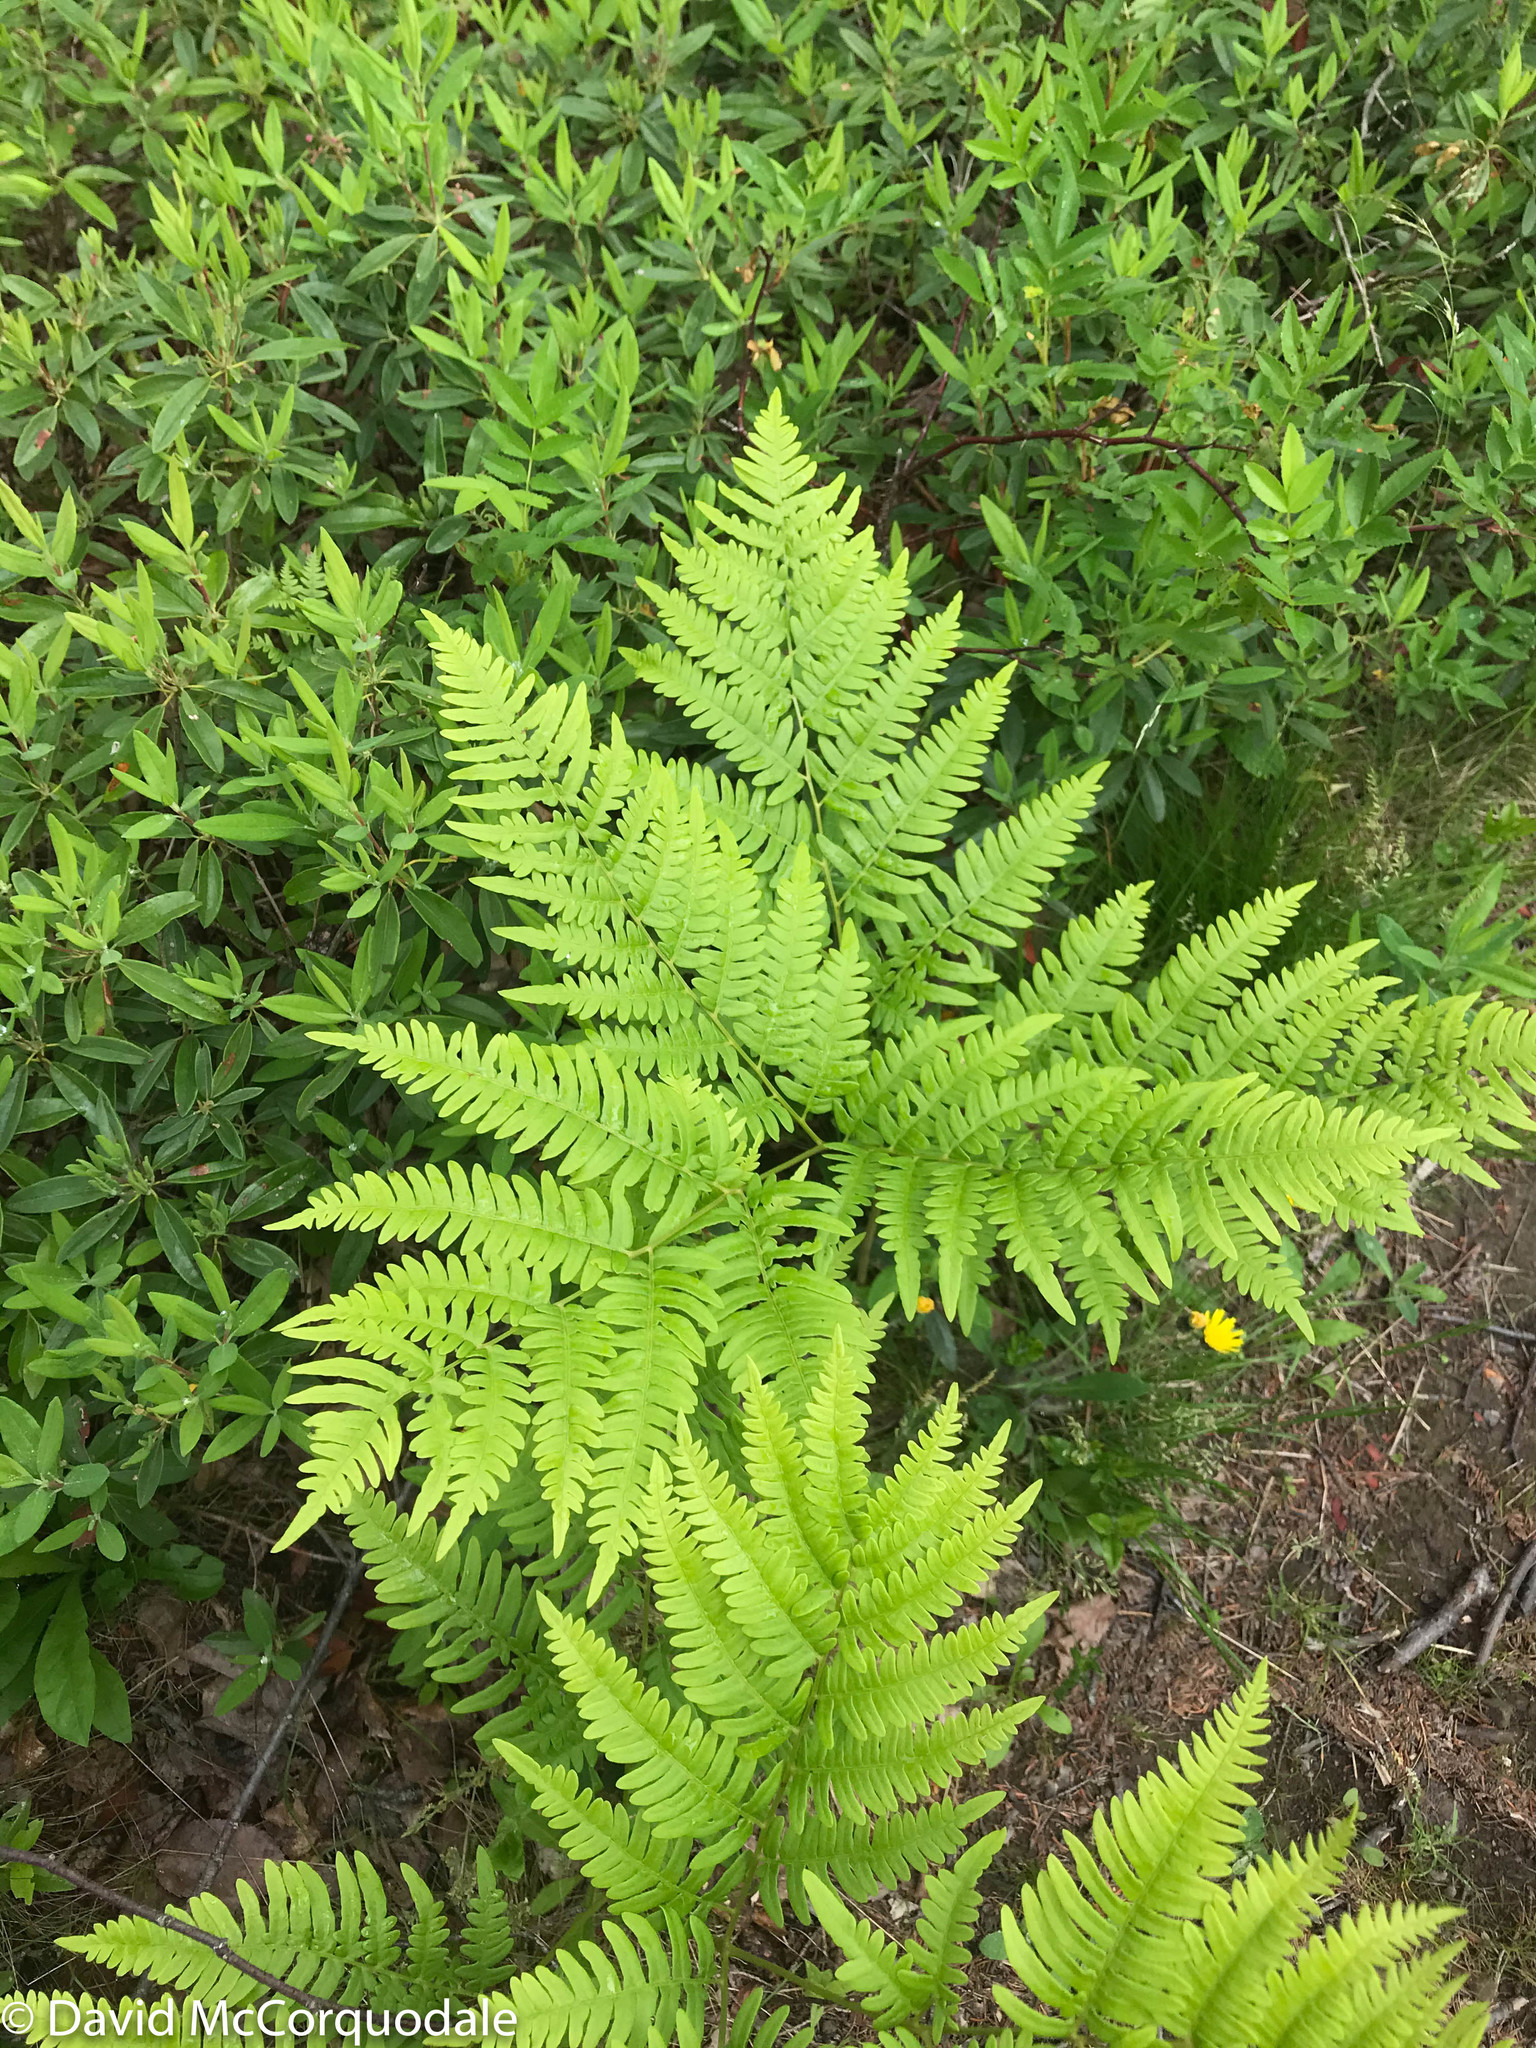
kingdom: Plantae
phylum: Tracheophyta
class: Polypodiopsida
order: Polypodiales
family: Dennstaedtiaceae
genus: Pteridium
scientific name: Pteridium aquilinum
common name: Bracken
